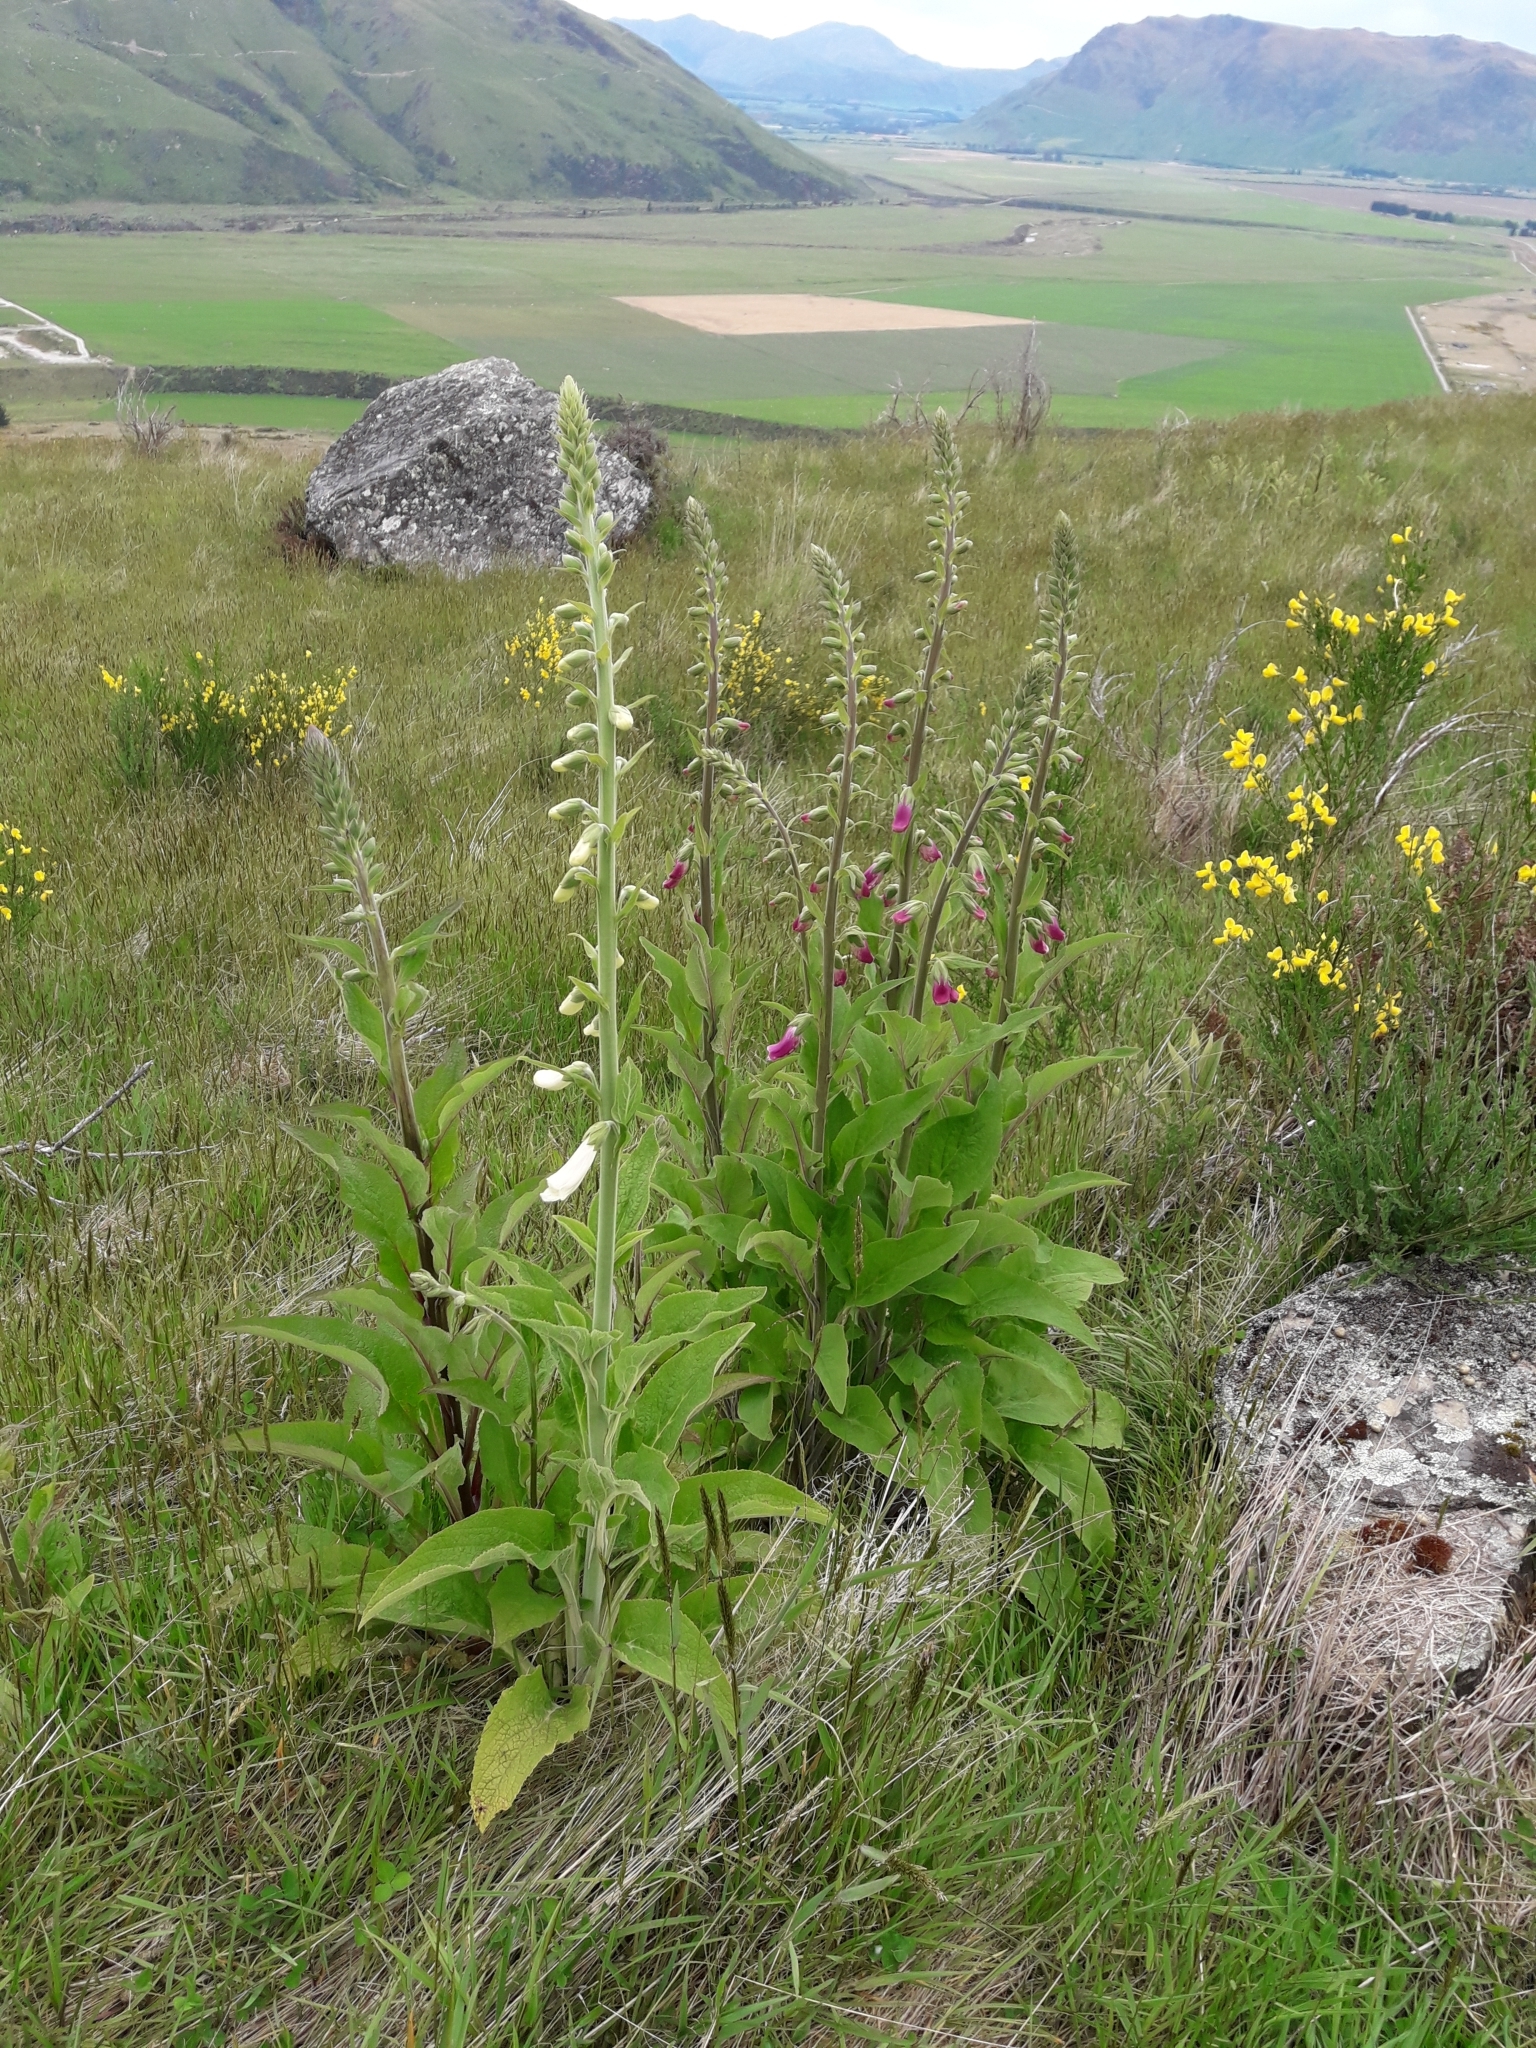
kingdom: Plantae
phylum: Tracheophyta
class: Magnoliopsida
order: Lamiales
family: Plantaginaceae
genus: Digitalis
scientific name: Digitalis purpurea
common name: Foxglove
